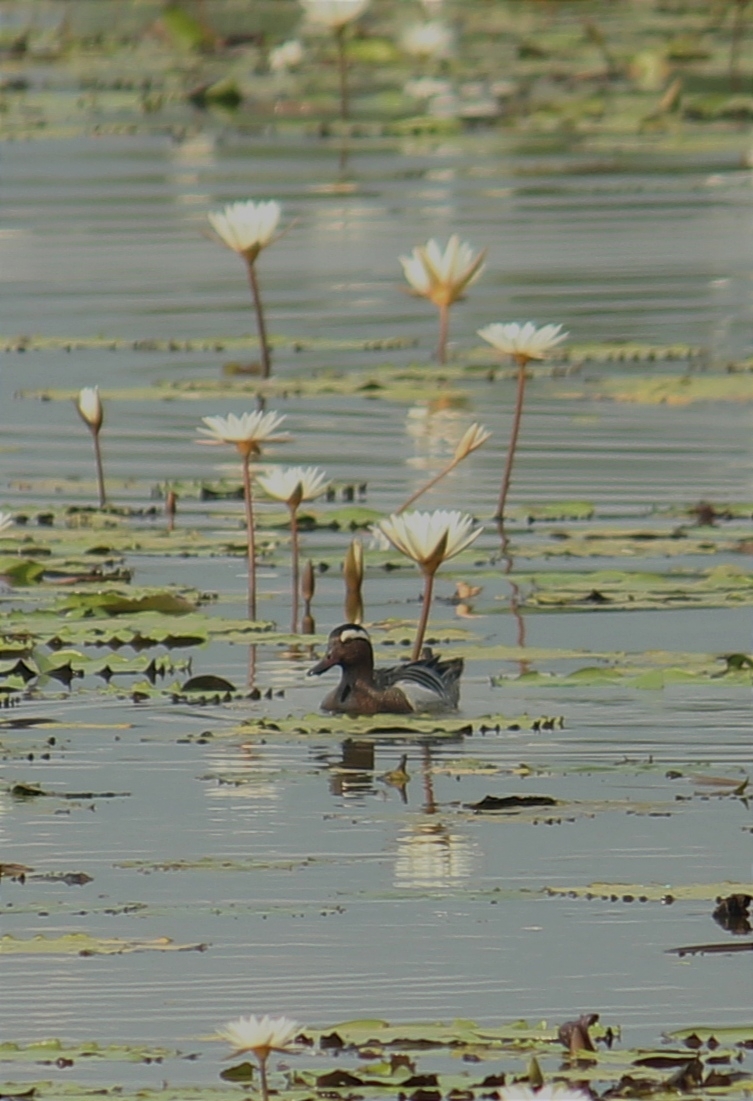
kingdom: Animalia
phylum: Chordata
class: Aves
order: Anseriformes
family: Anatidae
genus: Spatula
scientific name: Spatula querquedula
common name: Garganey
